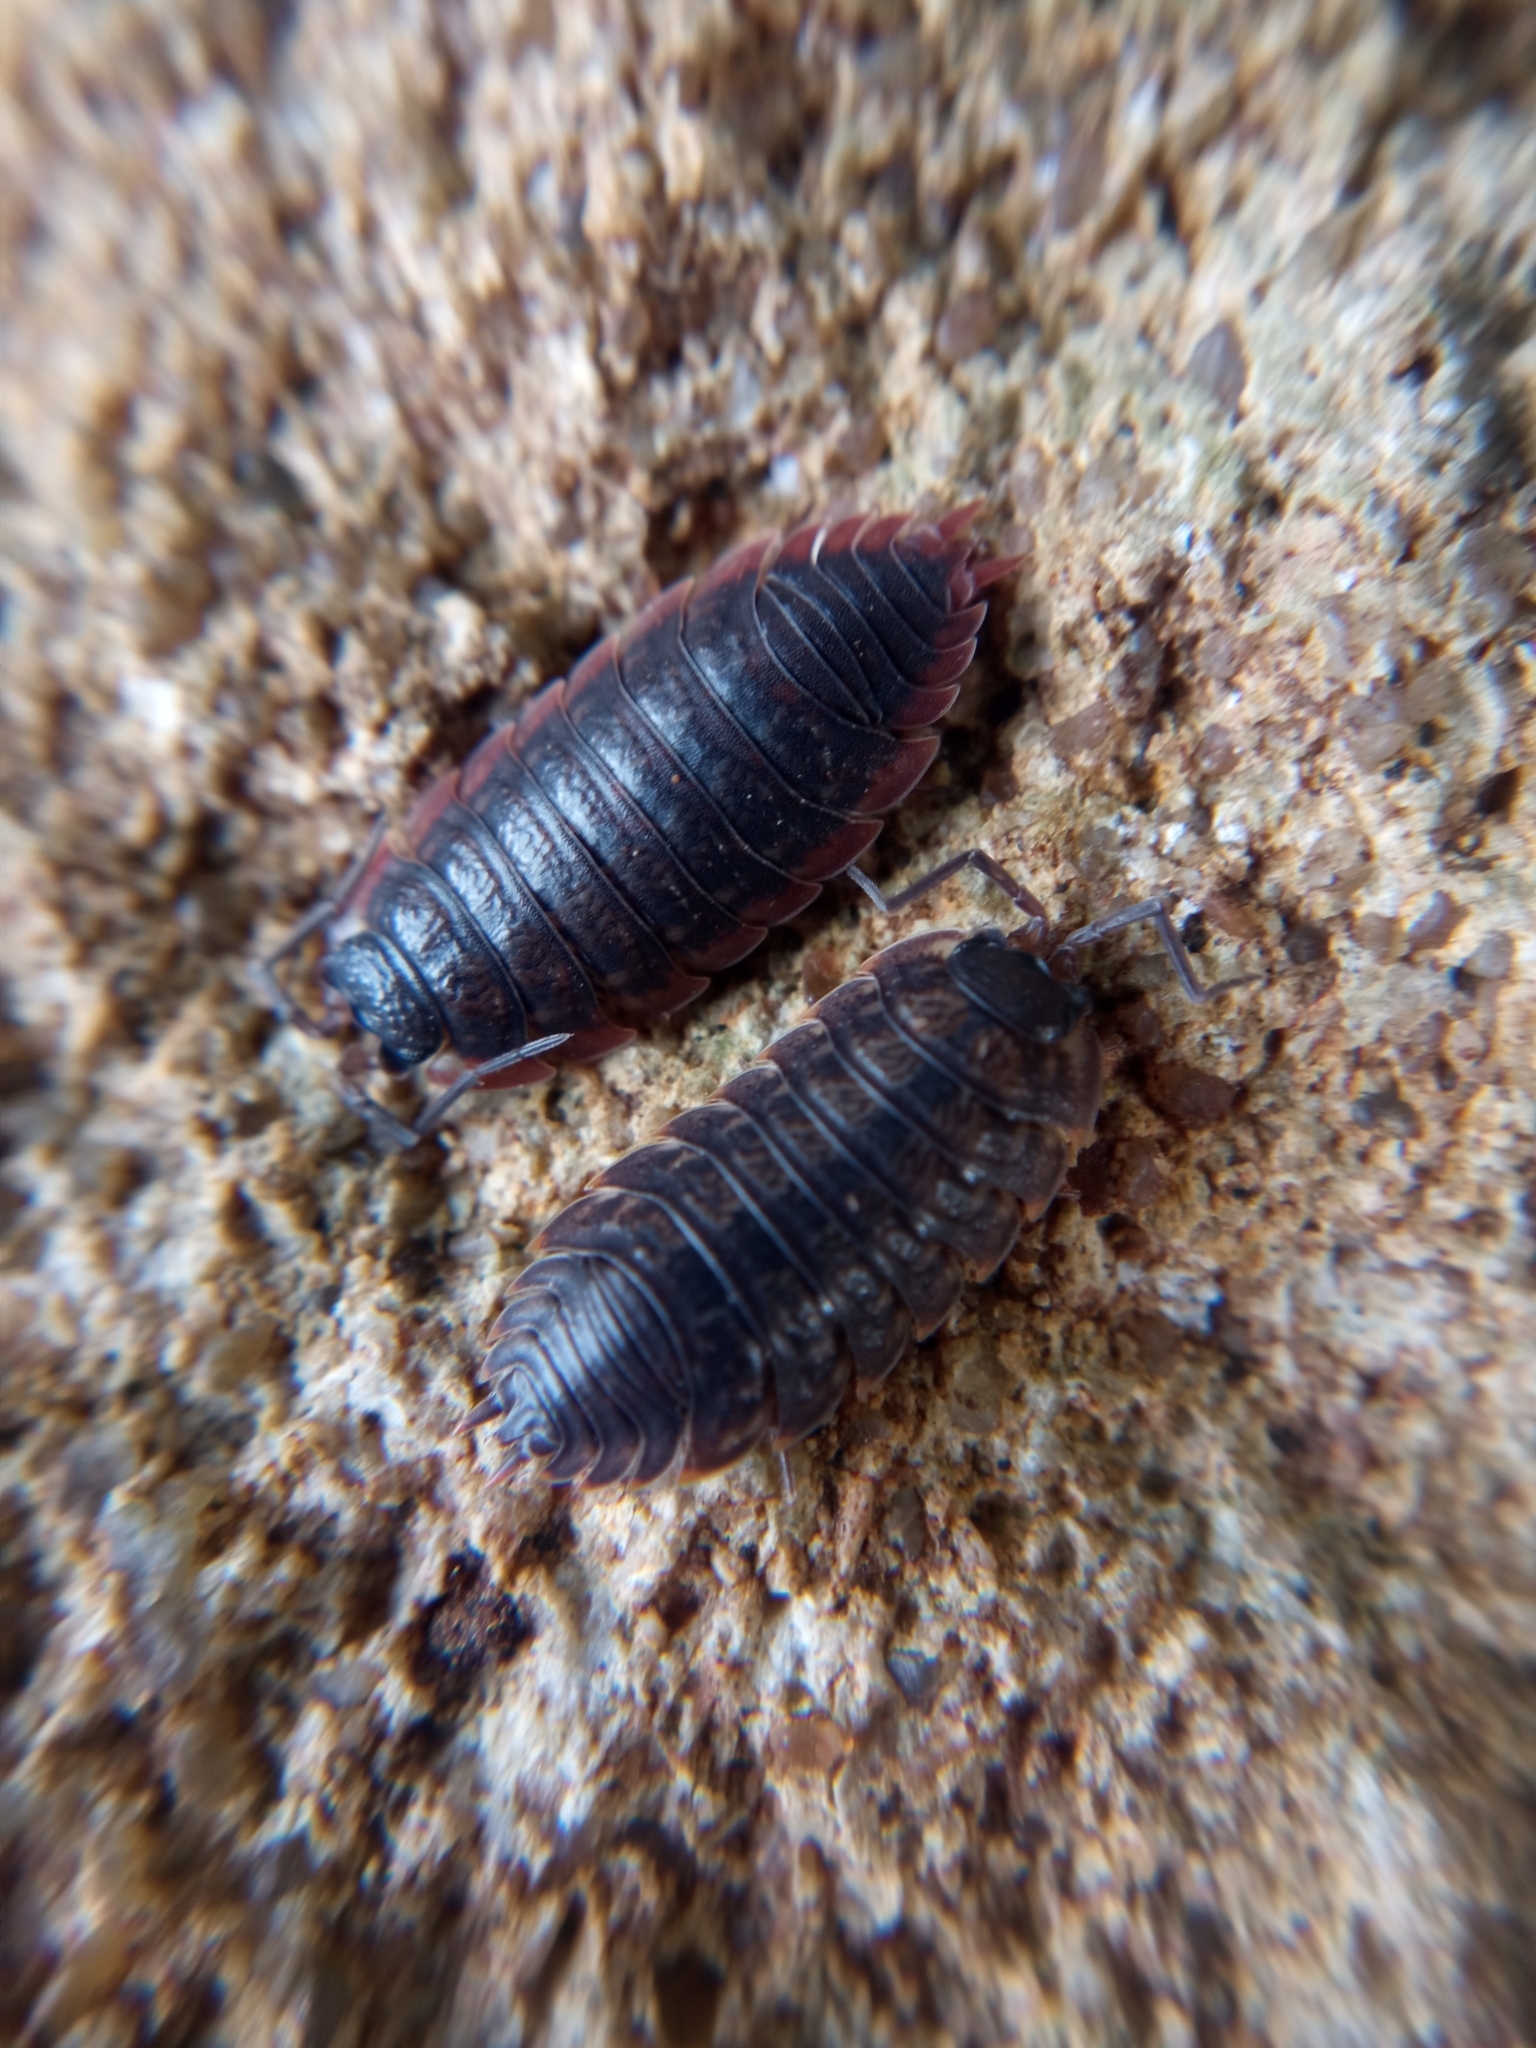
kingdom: Animalia
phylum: Arthropoda
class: Malacostraca
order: Isopoda
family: Porcellionidae
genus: Porcellio
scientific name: Porcellio montanus
